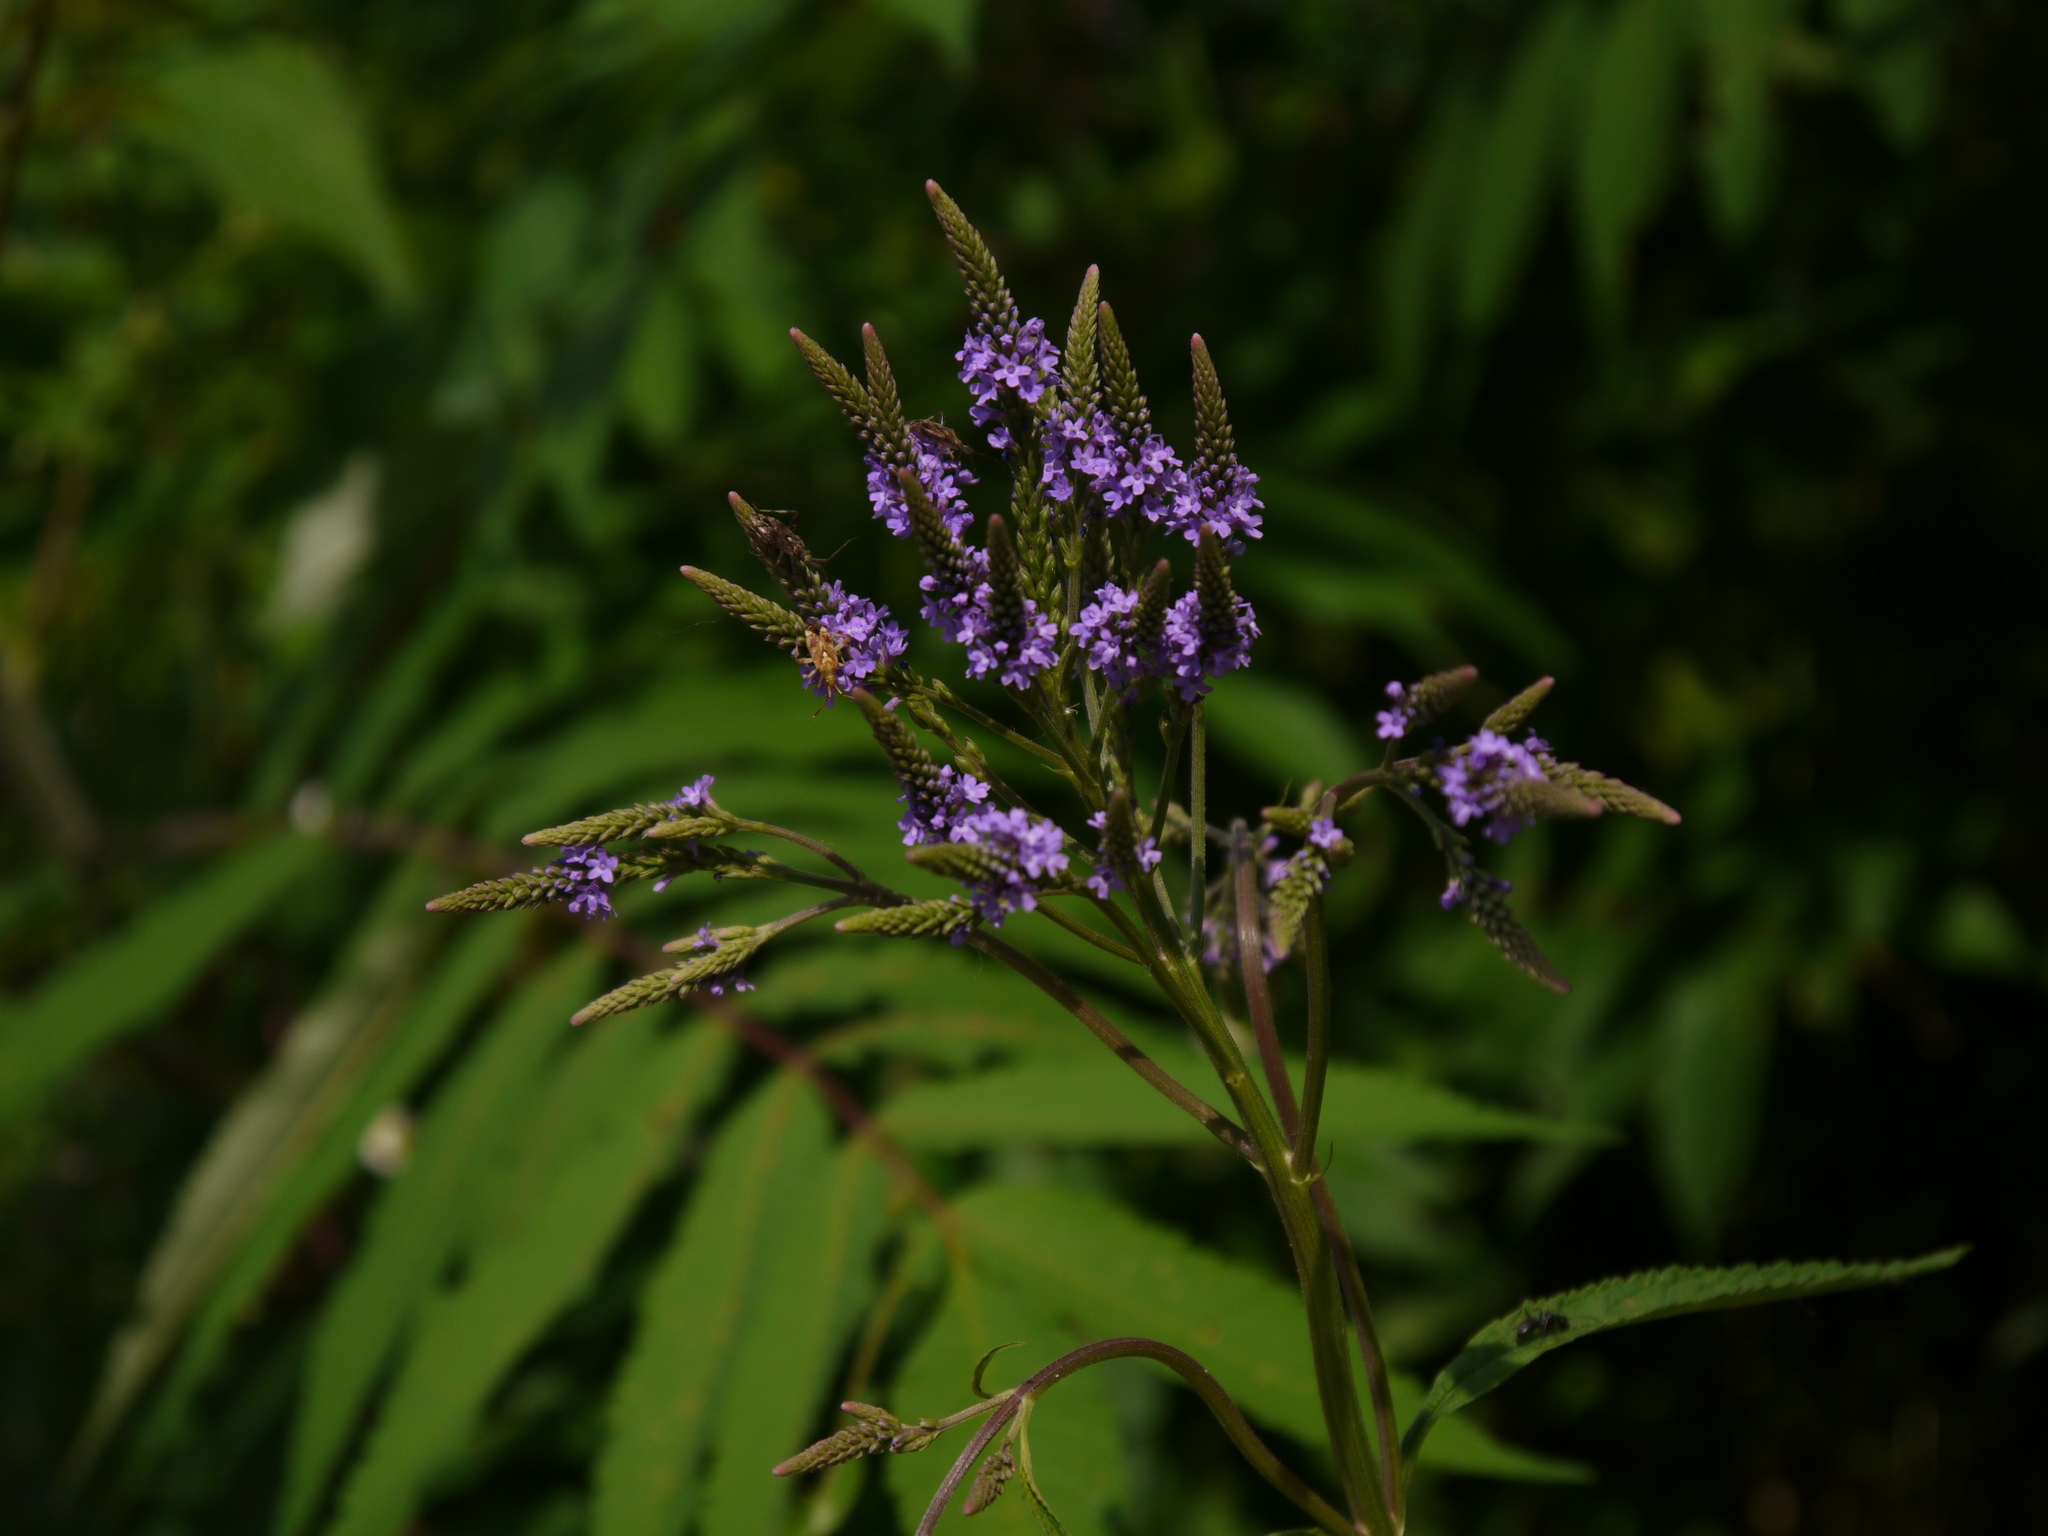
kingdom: Plantae
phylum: Tracheophyta
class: Magnoliopsida
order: Lamiales
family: Verbenaceae
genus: Verbena
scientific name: Verbena hastata
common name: American blue vervain
